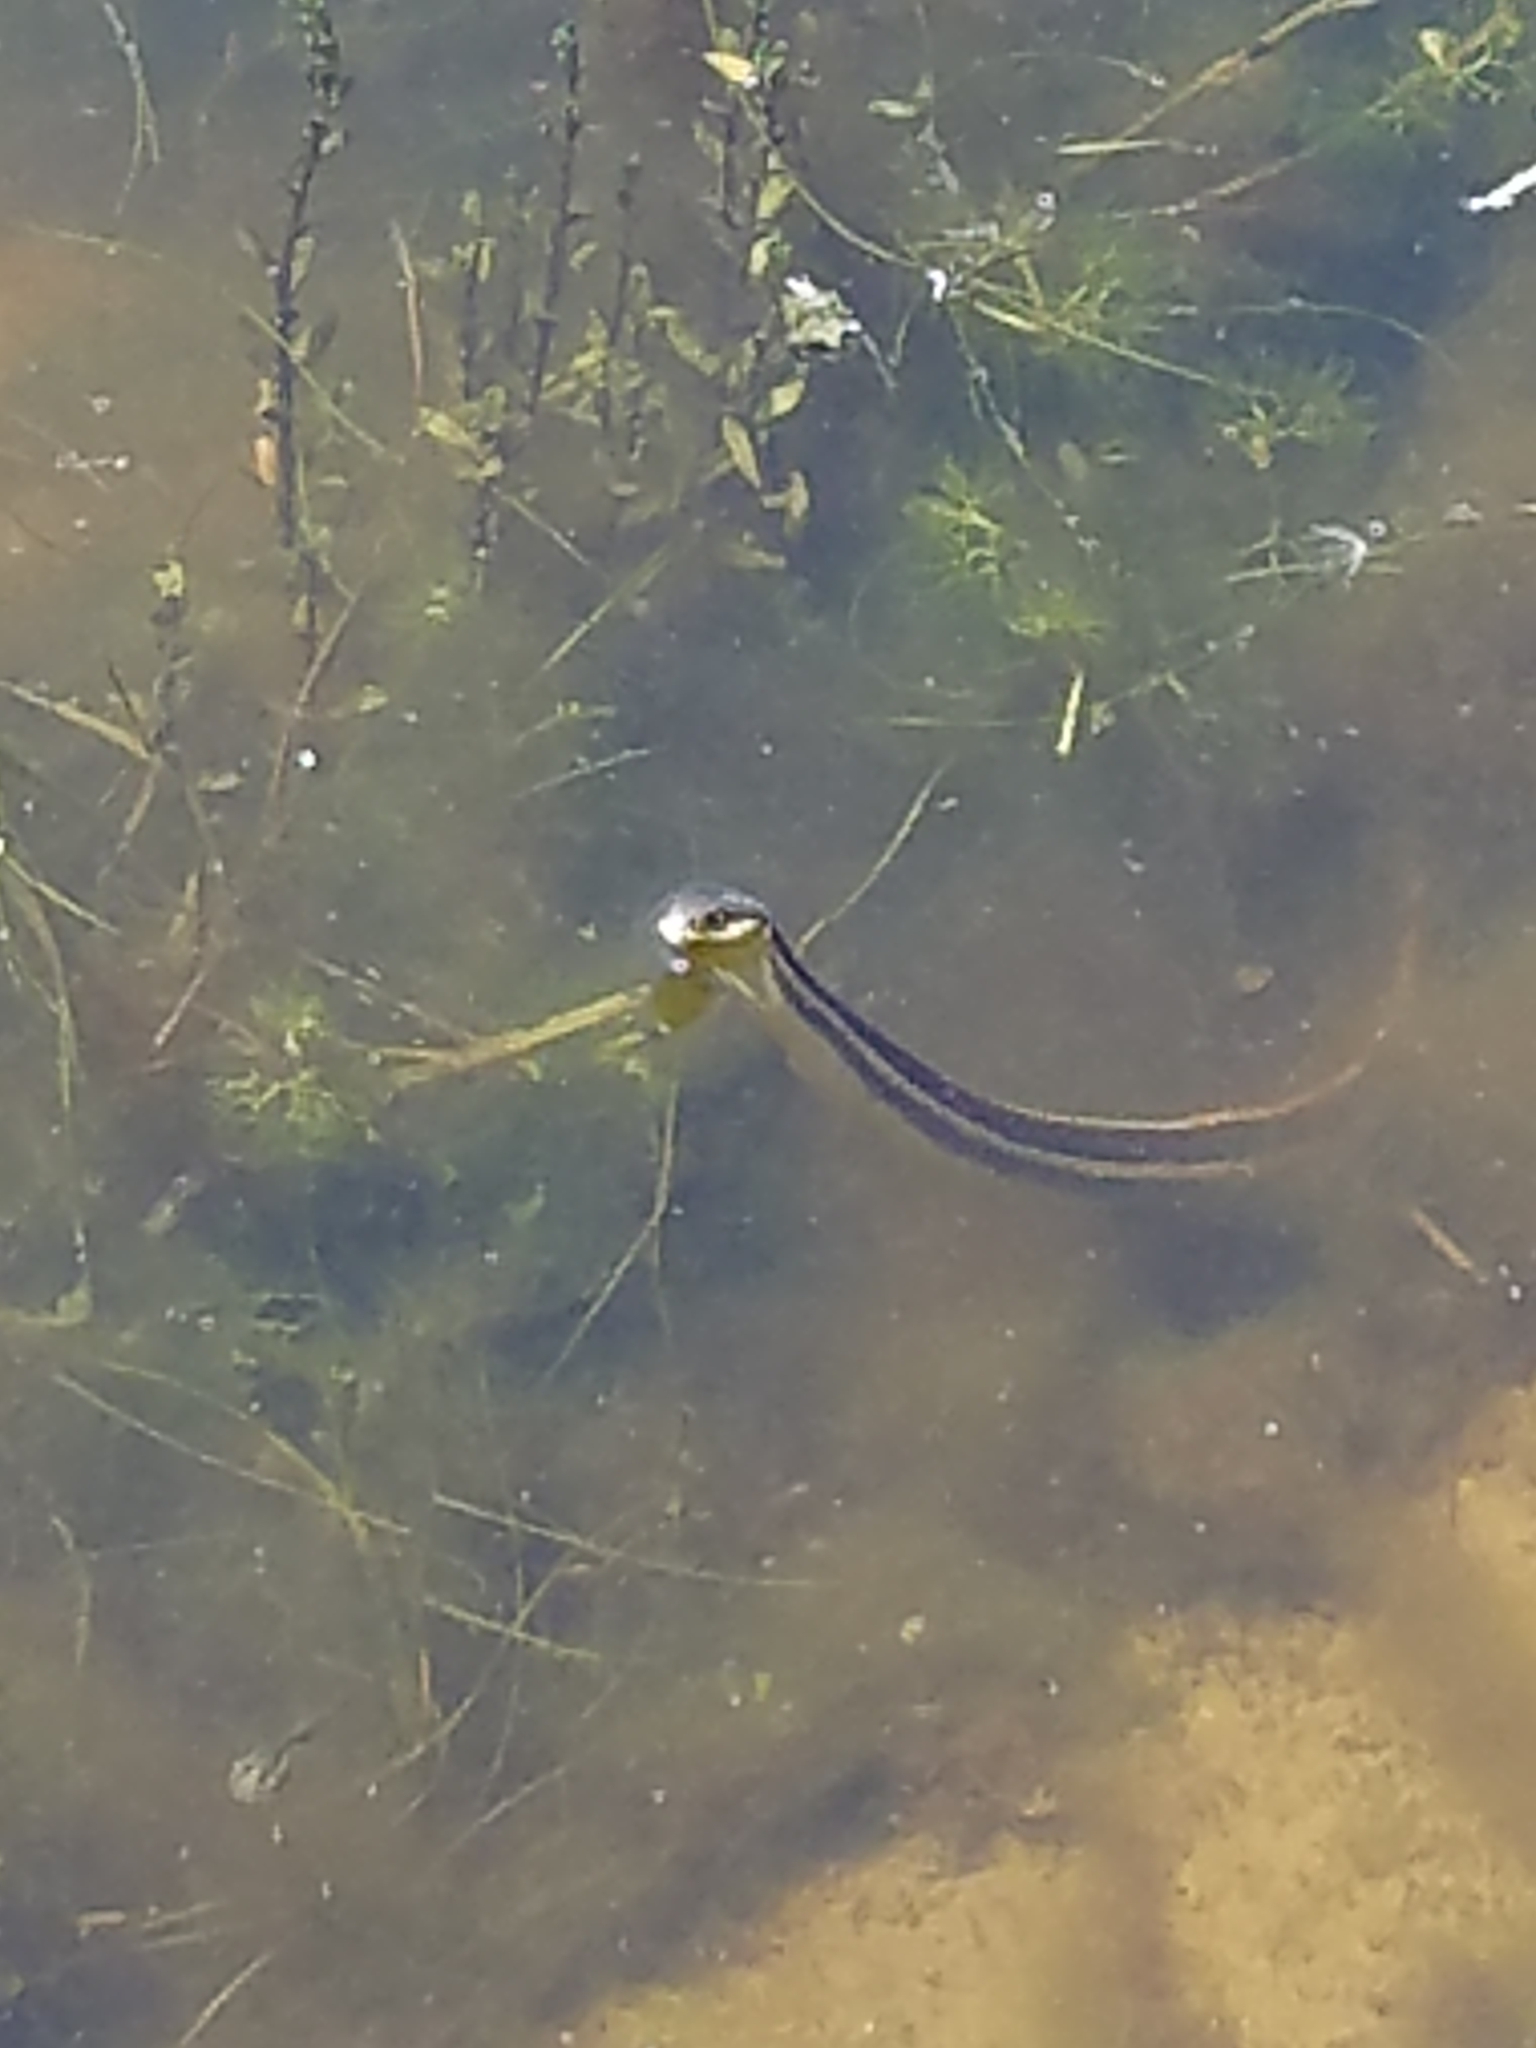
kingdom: Animalia
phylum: Chordata
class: Squamata
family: Colubridae
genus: Thamnophis
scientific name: Thamnophis atratus
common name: Pacific coast aquatic garter snake
